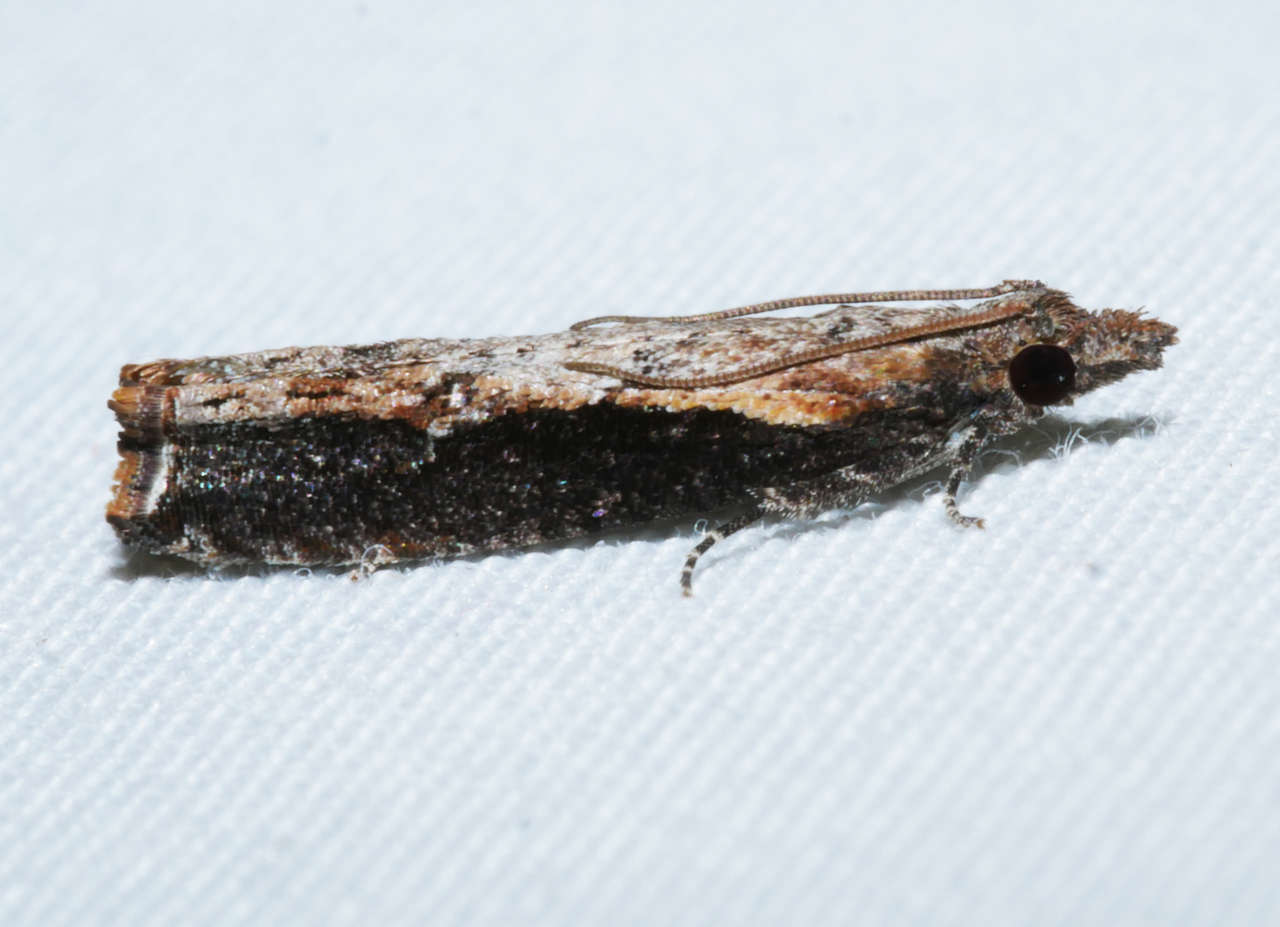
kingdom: Animalia
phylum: Arthropoda
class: Insecta
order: Lepidoptera
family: Tortricidae
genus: Strepsicrates
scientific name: Strepsicrates infensa
